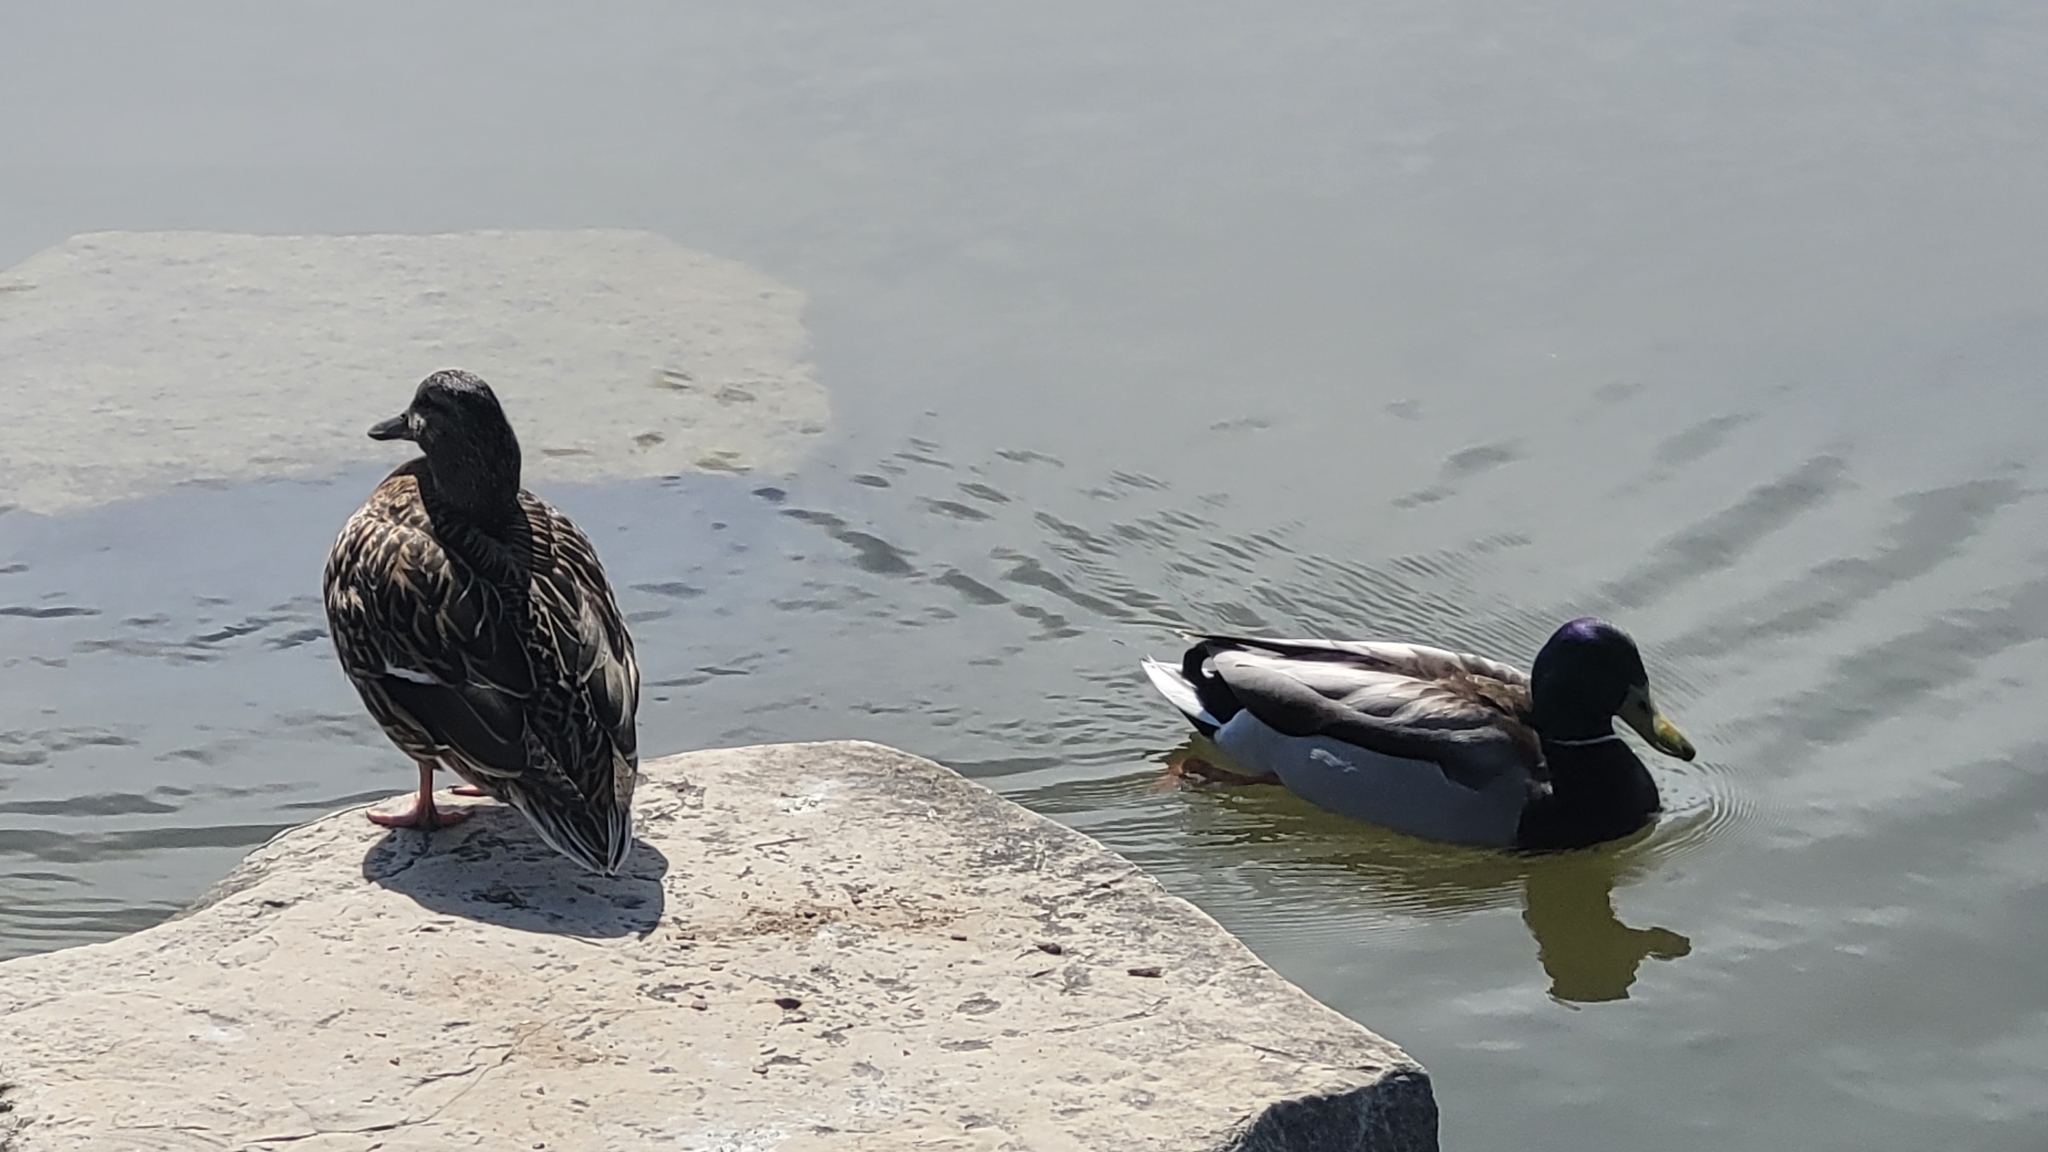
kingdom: Animalia
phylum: Chordata
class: Aves
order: Anseriformes
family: Anatidae
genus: Anas
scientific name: Anas platyrhynchos
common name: Mallard
